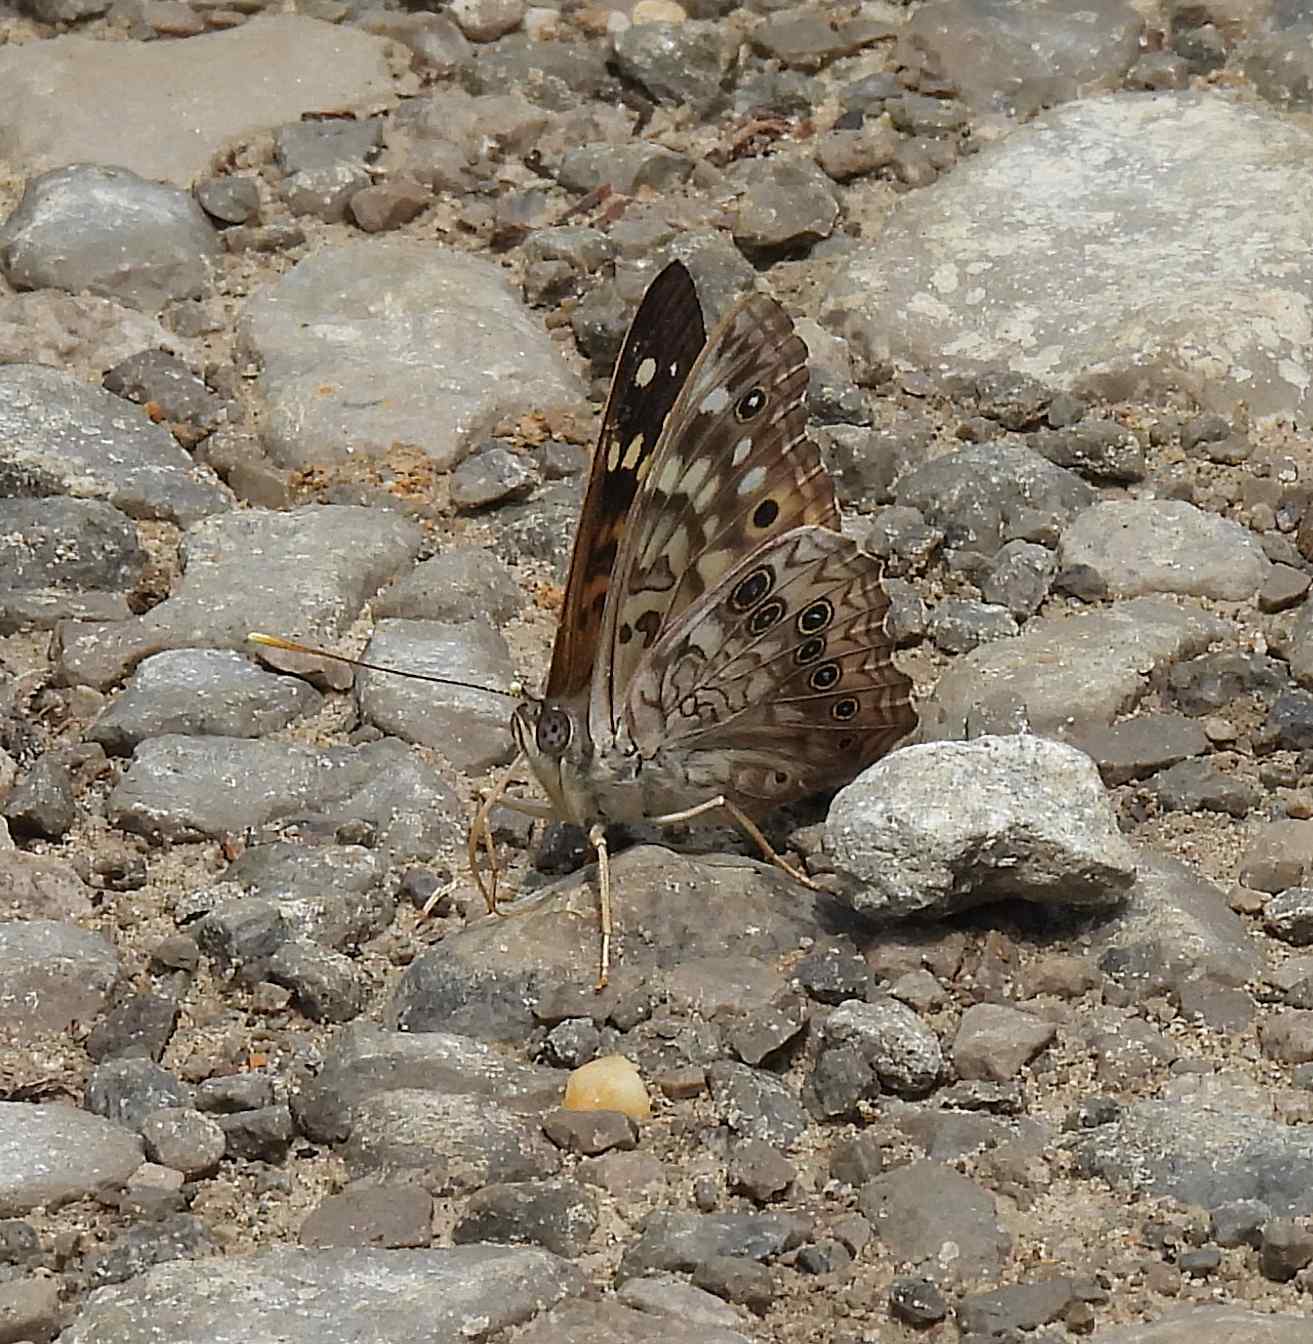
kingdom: Animalia
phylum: Arthropoda
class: Insecta
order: Lepidoptera
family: Nymphalidae
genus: Asterocampa
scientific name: Asterocampa celtis
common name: Hackberry emperor
